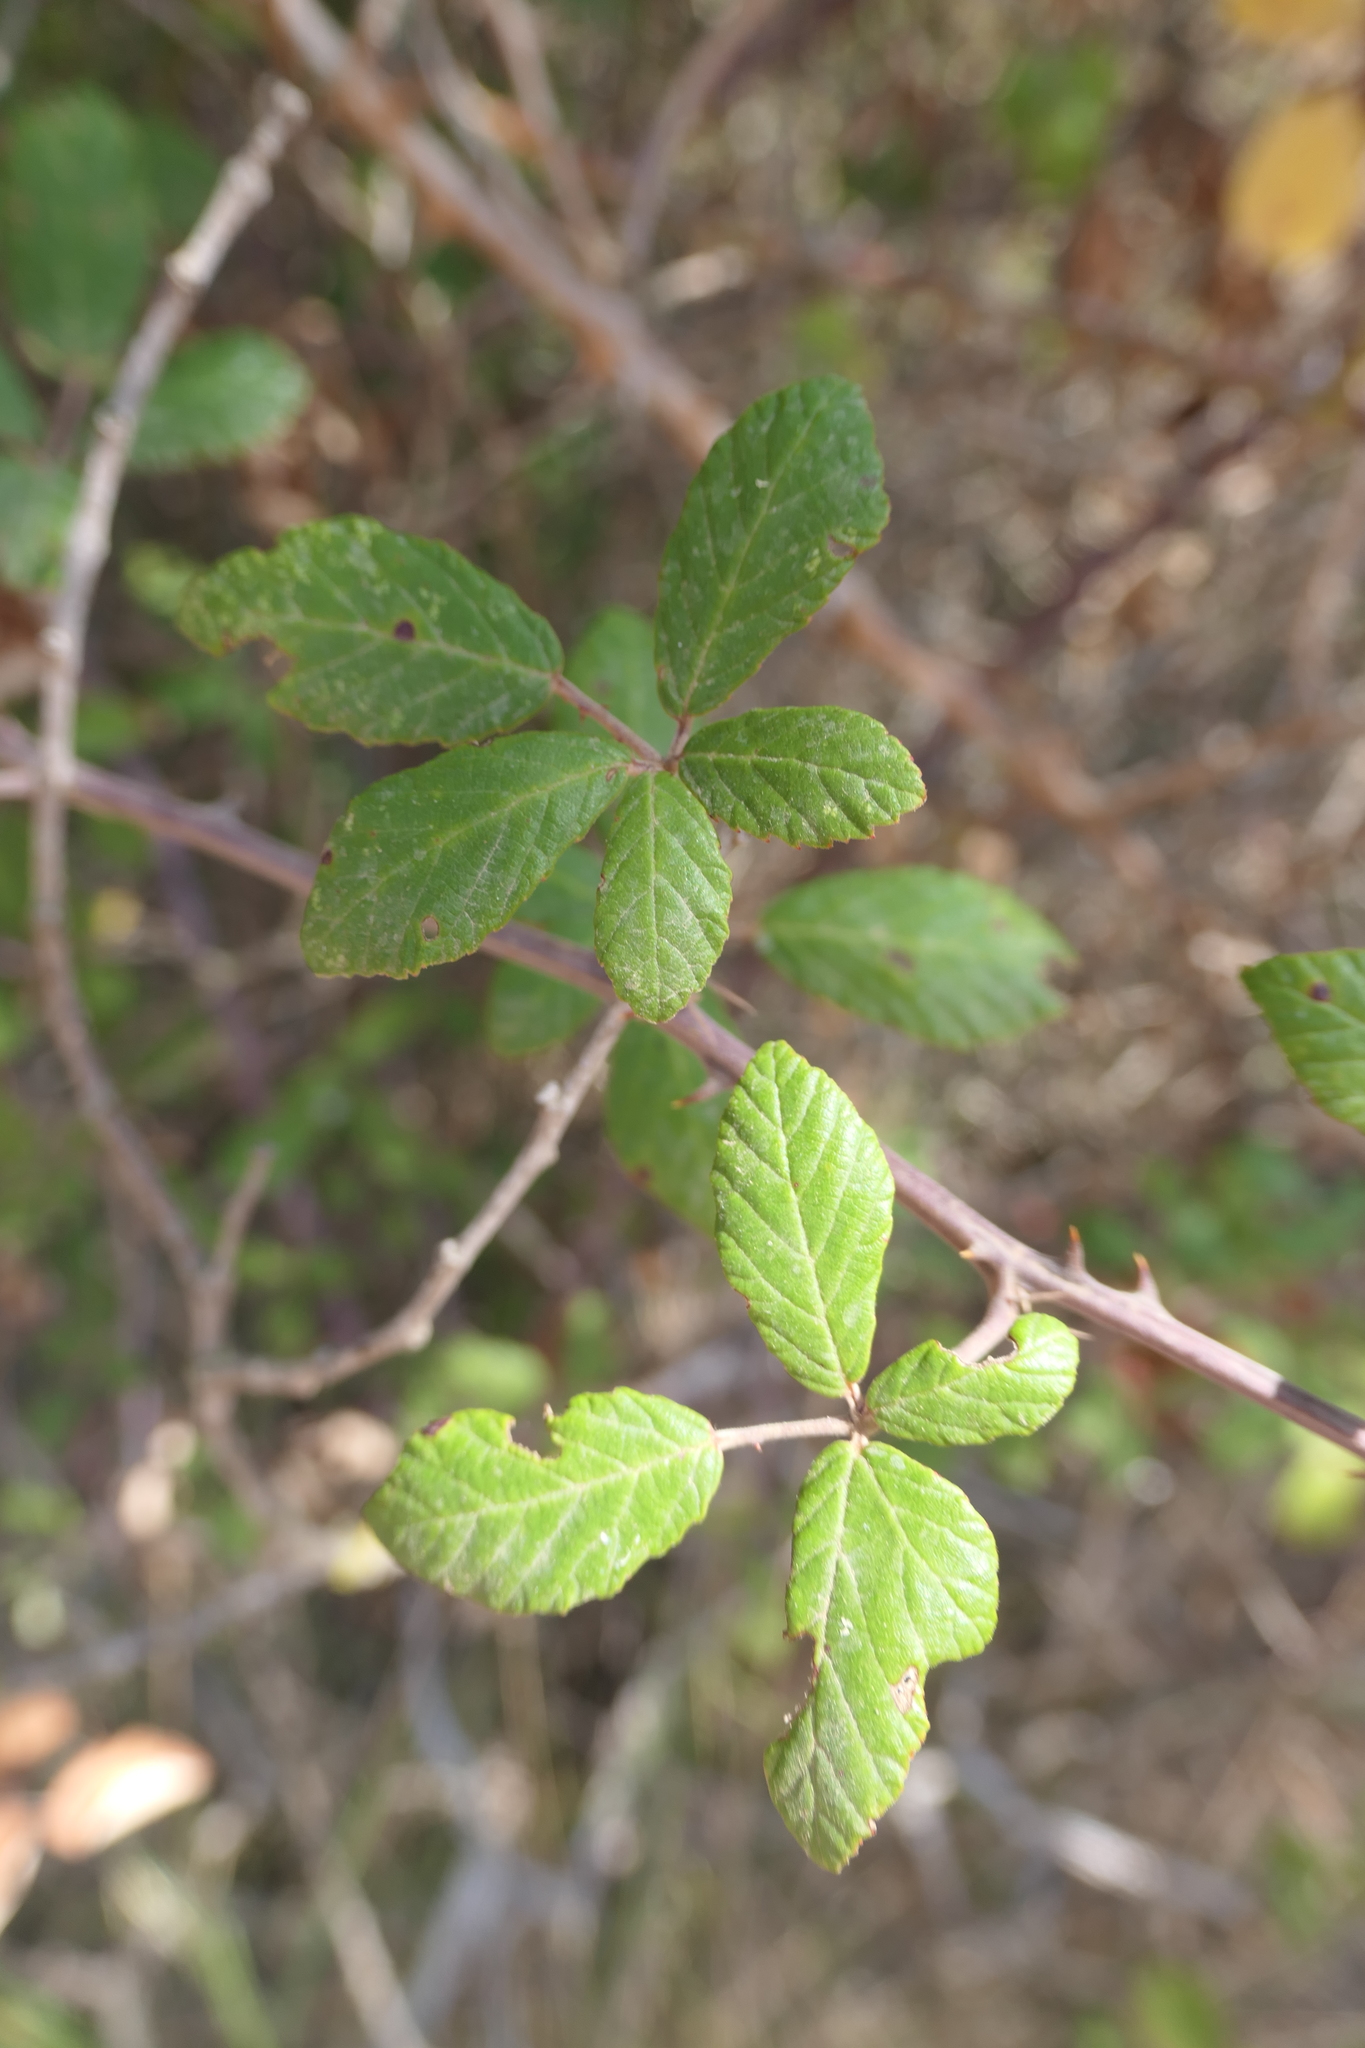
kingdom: Plantae
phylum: Tracheophyta
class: Magnoliopsida
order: Rosales
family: Rosaceae
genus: Rubus
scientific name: Rubus ulmifolius
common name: Elmleaf blackberry
